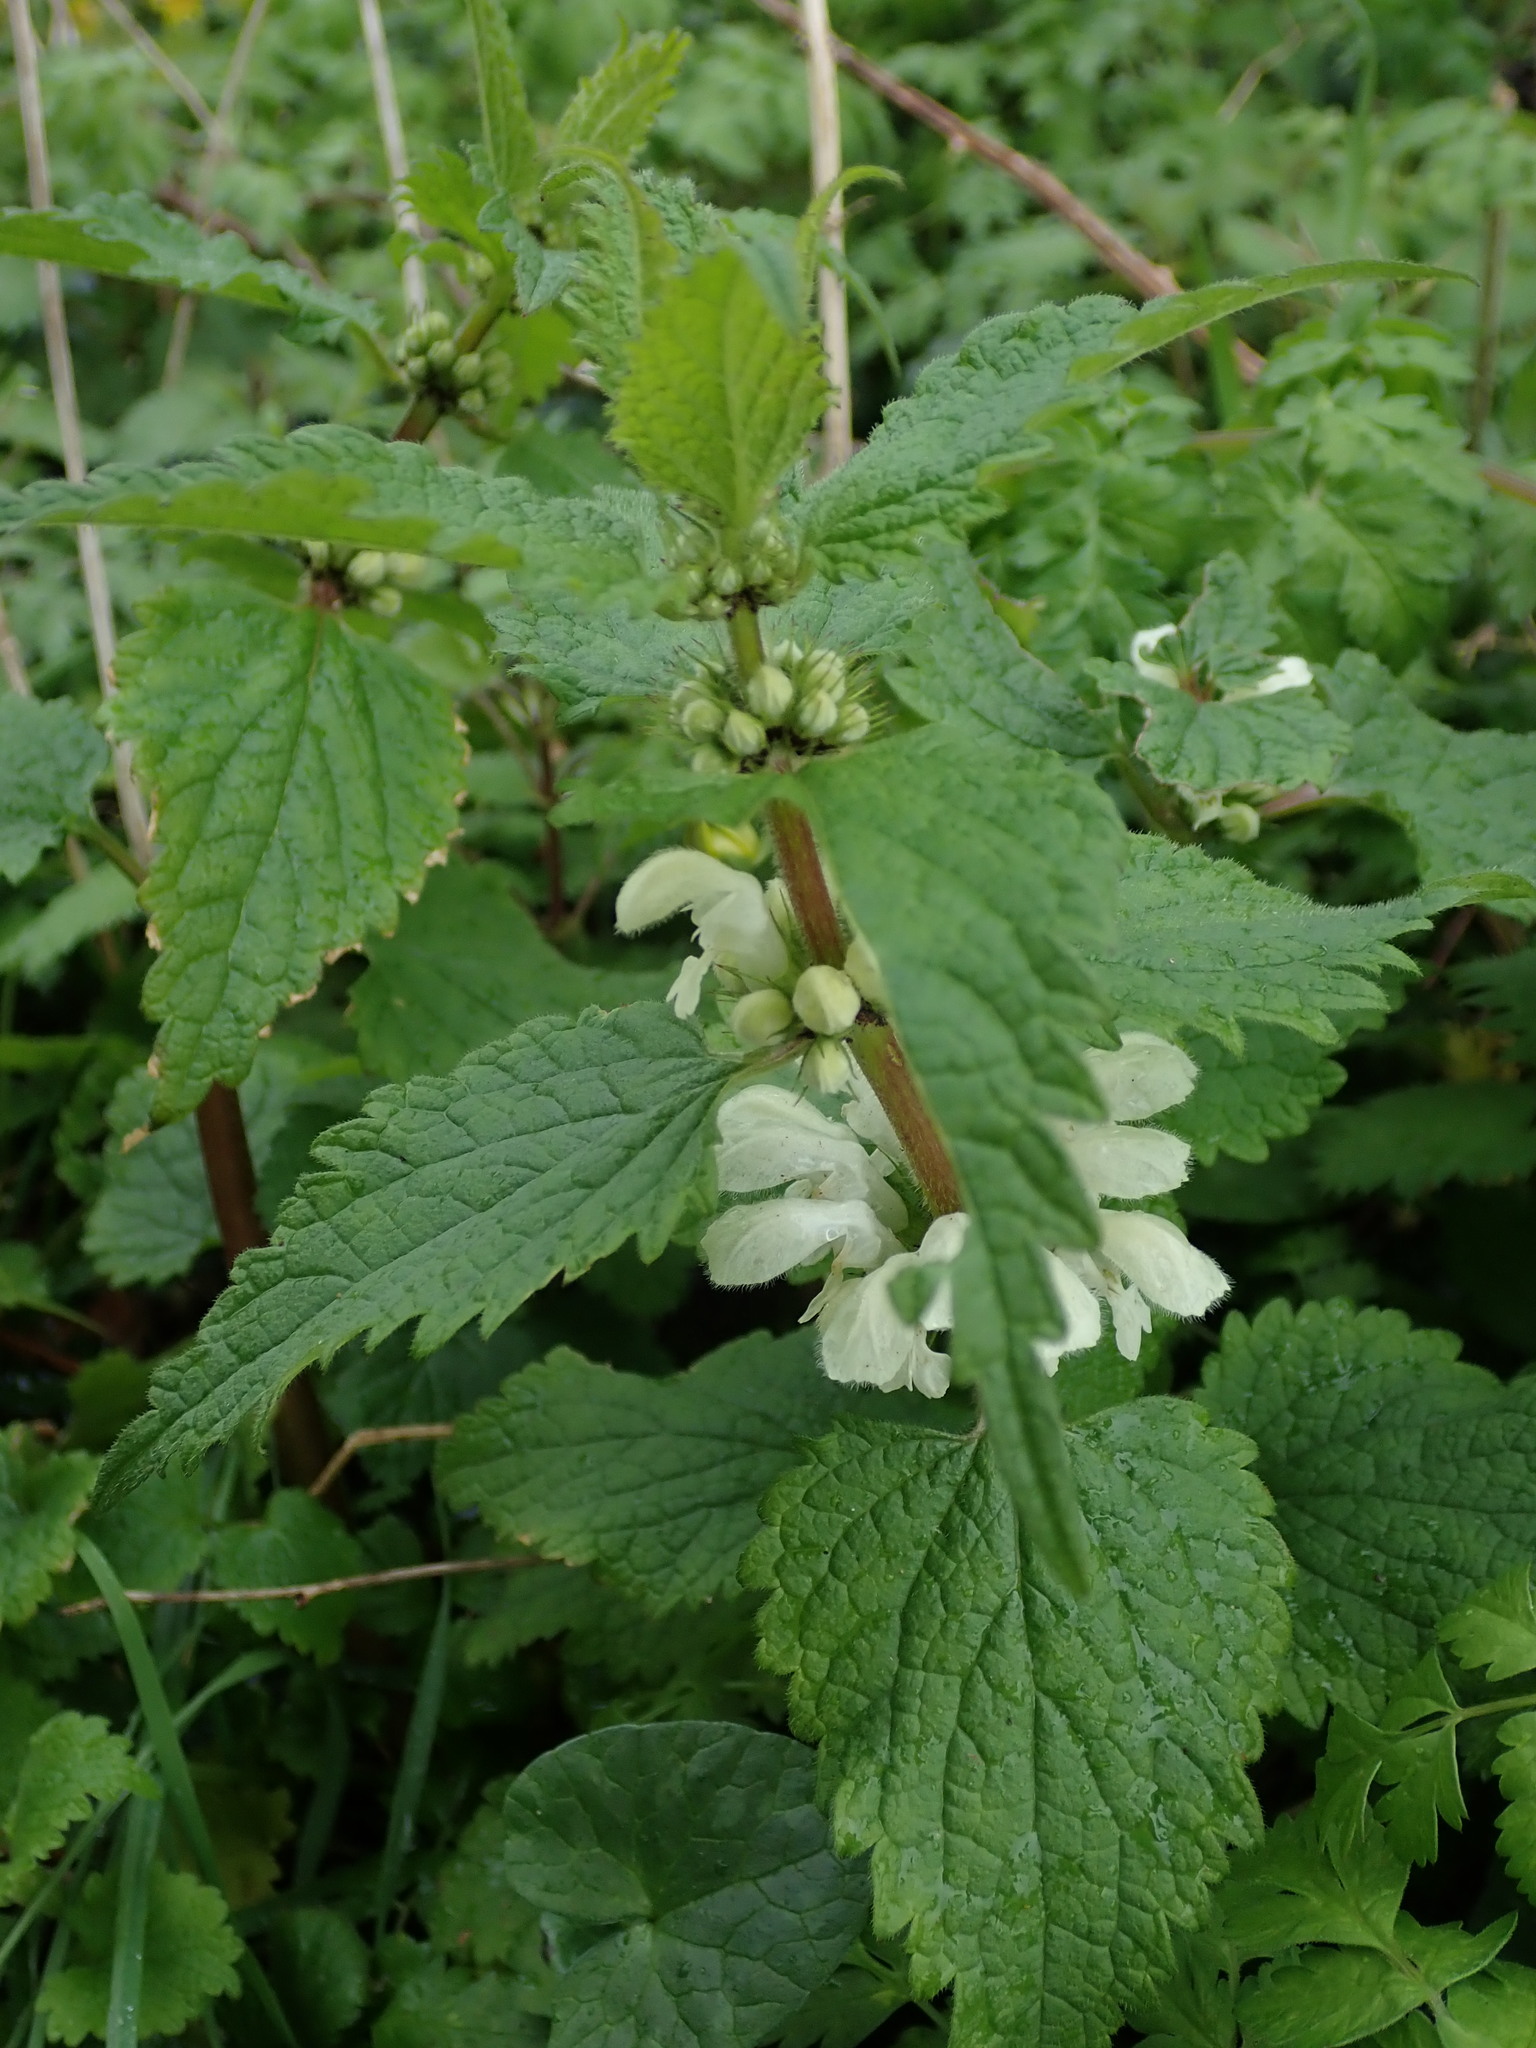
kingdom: Plantae
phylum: Tracheophyta
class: Magnoliopsida
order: Lamiales
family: Lamiaceae
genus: Lamium
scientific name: Lamium album
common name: White dead-nettle
